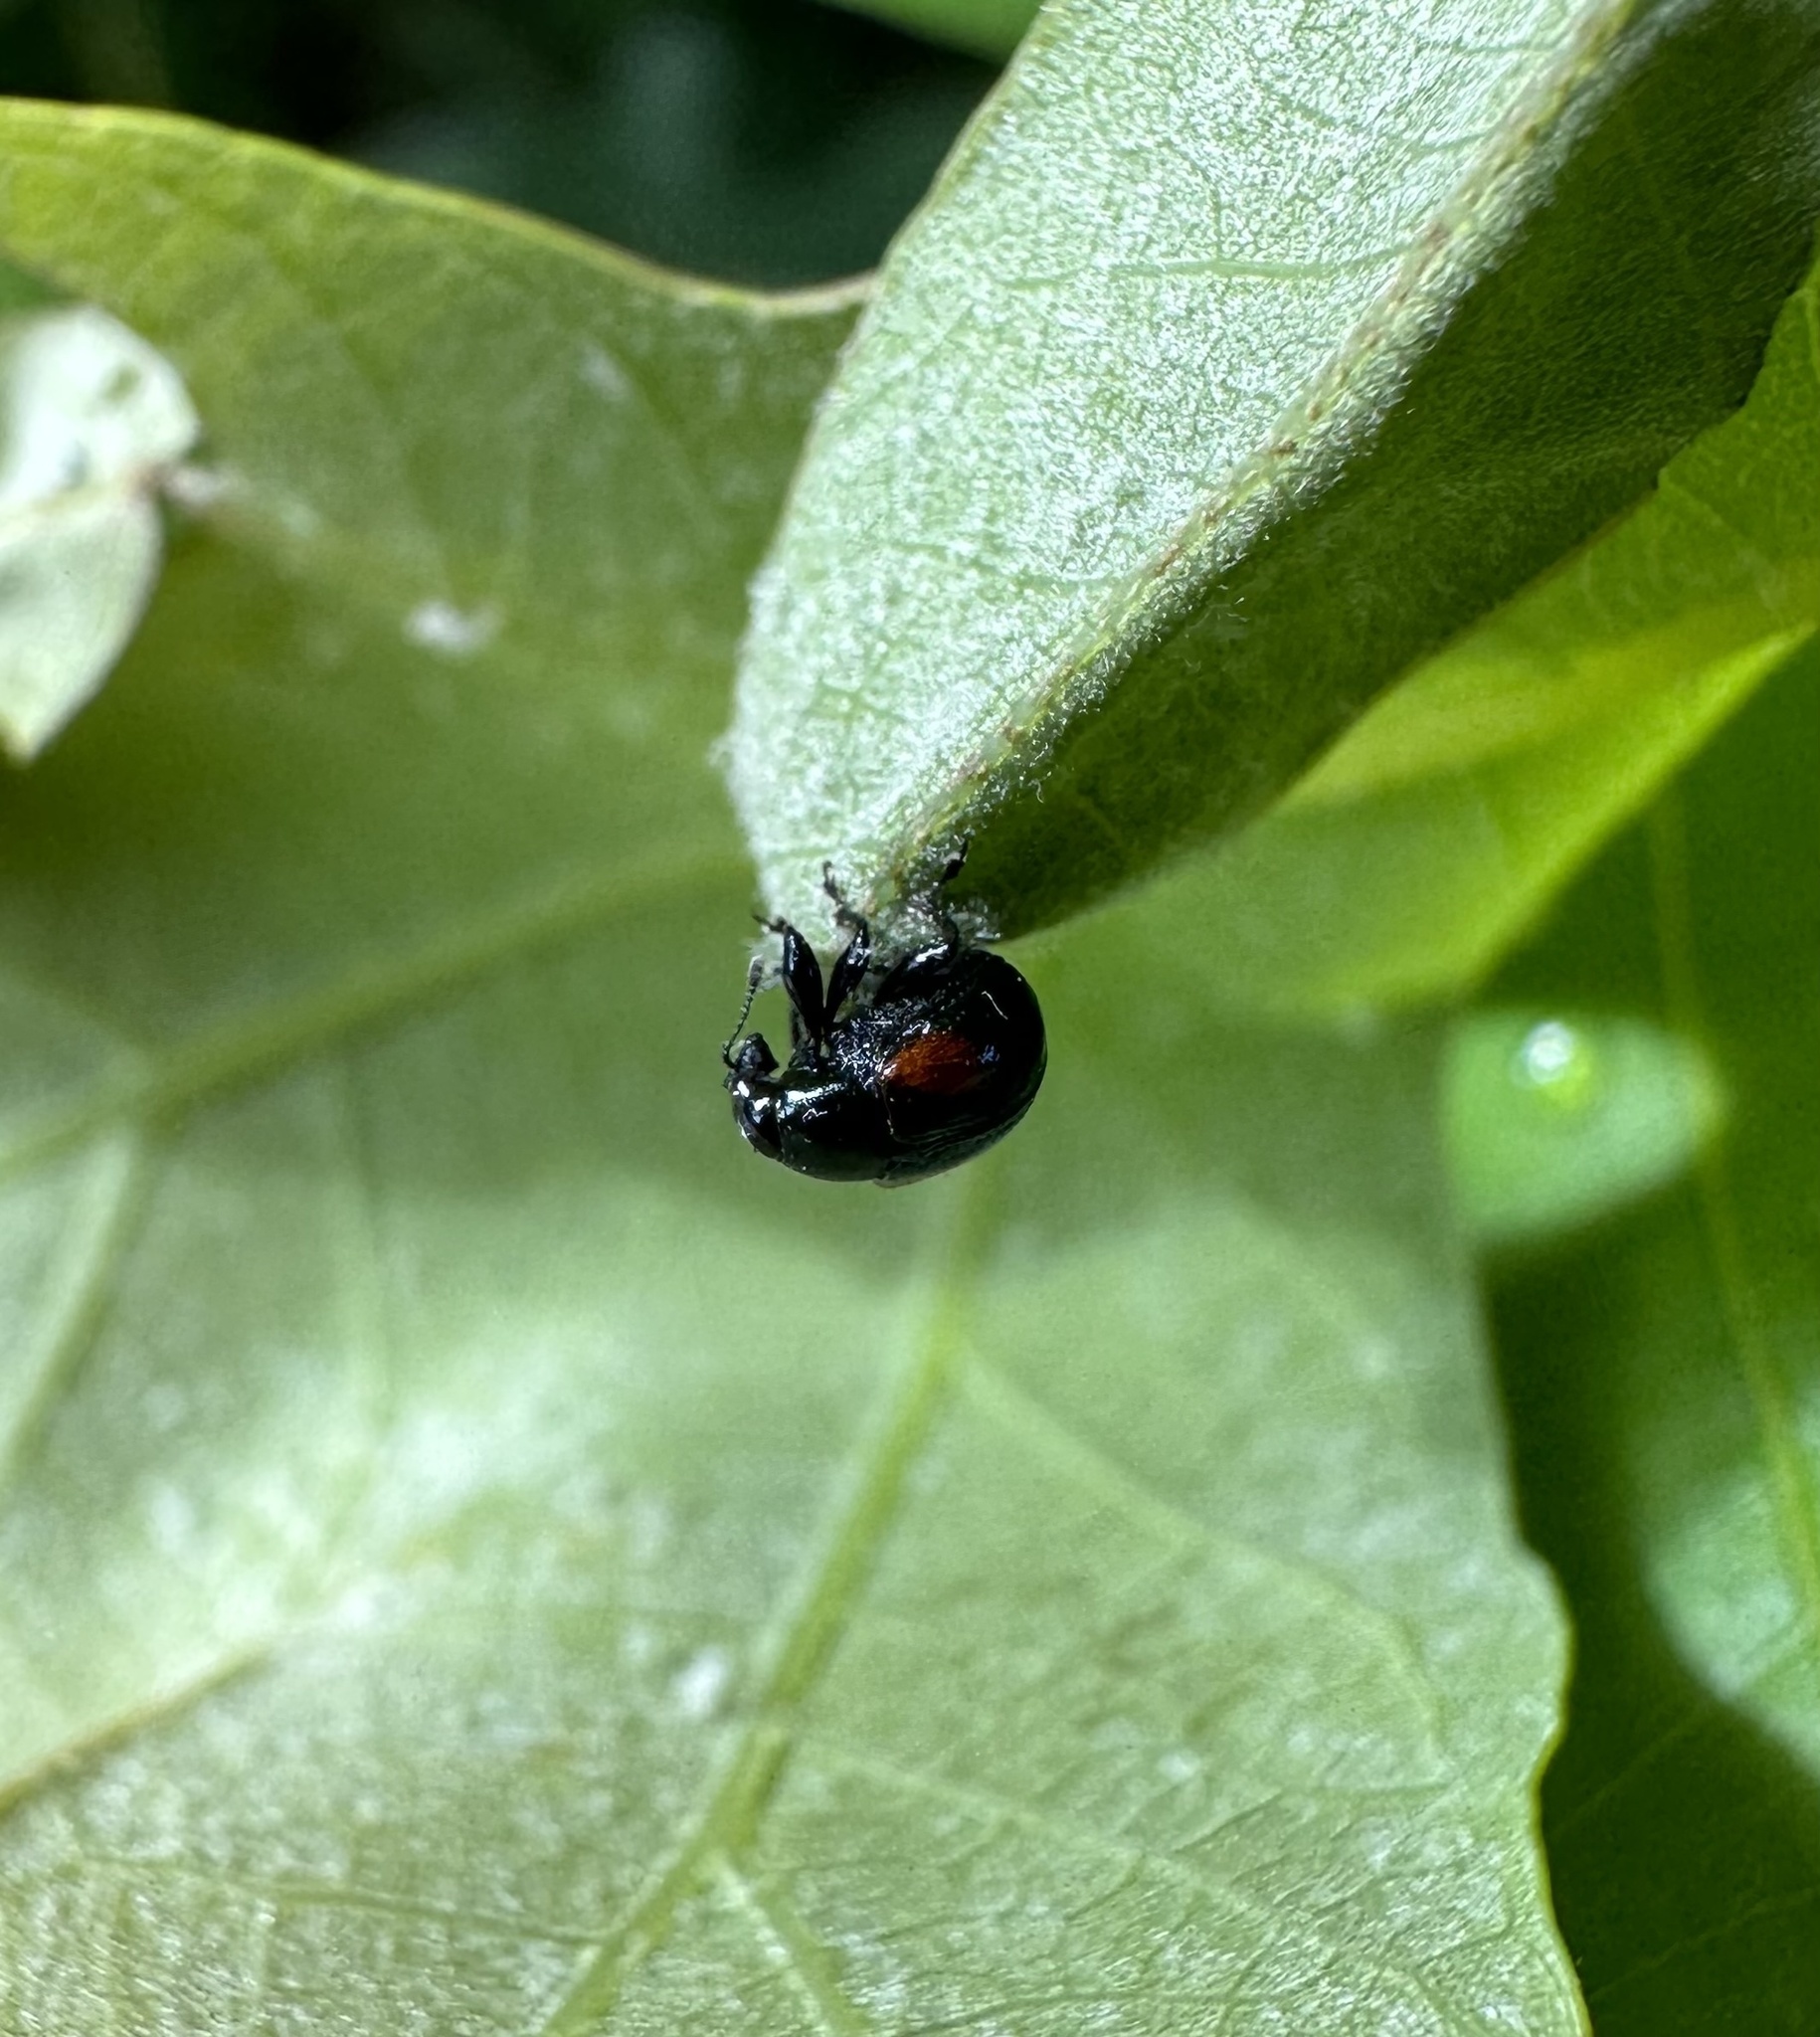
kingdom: Animalia
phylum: Arthropoda
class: Insecta
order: Coleoptera
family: Attelabidae
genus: Attelabus
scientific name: Attelabus bipustulatus
